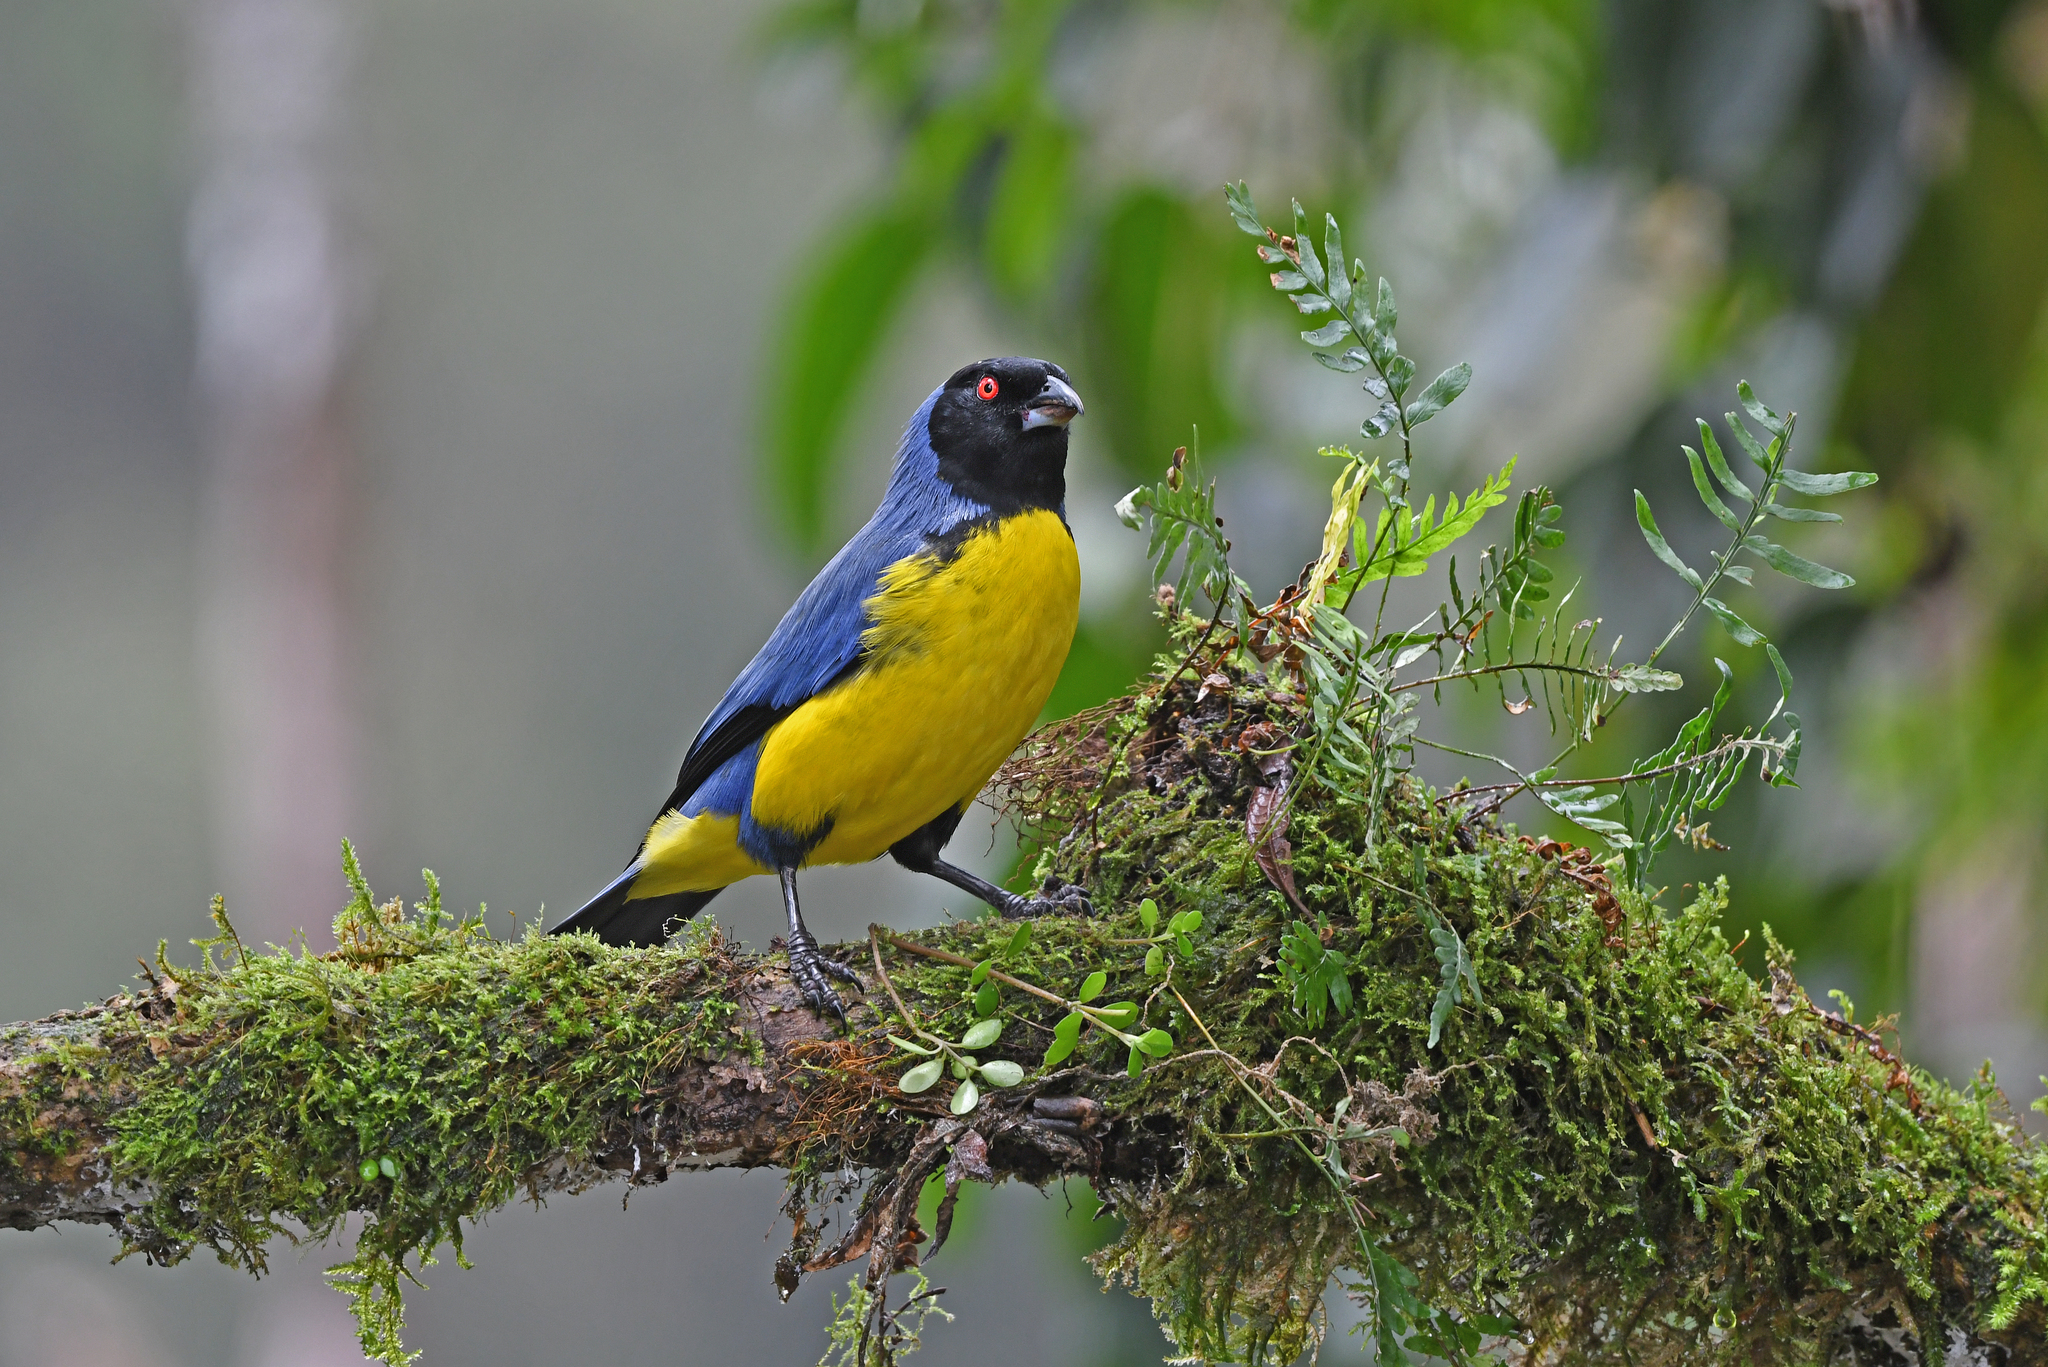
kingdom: Animalia
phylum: Chordata
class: Aves
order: Passeriformes
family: Thraupidae
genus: Buthraupis
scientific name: Buthraupis montana
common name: Hooded mountain tanager
